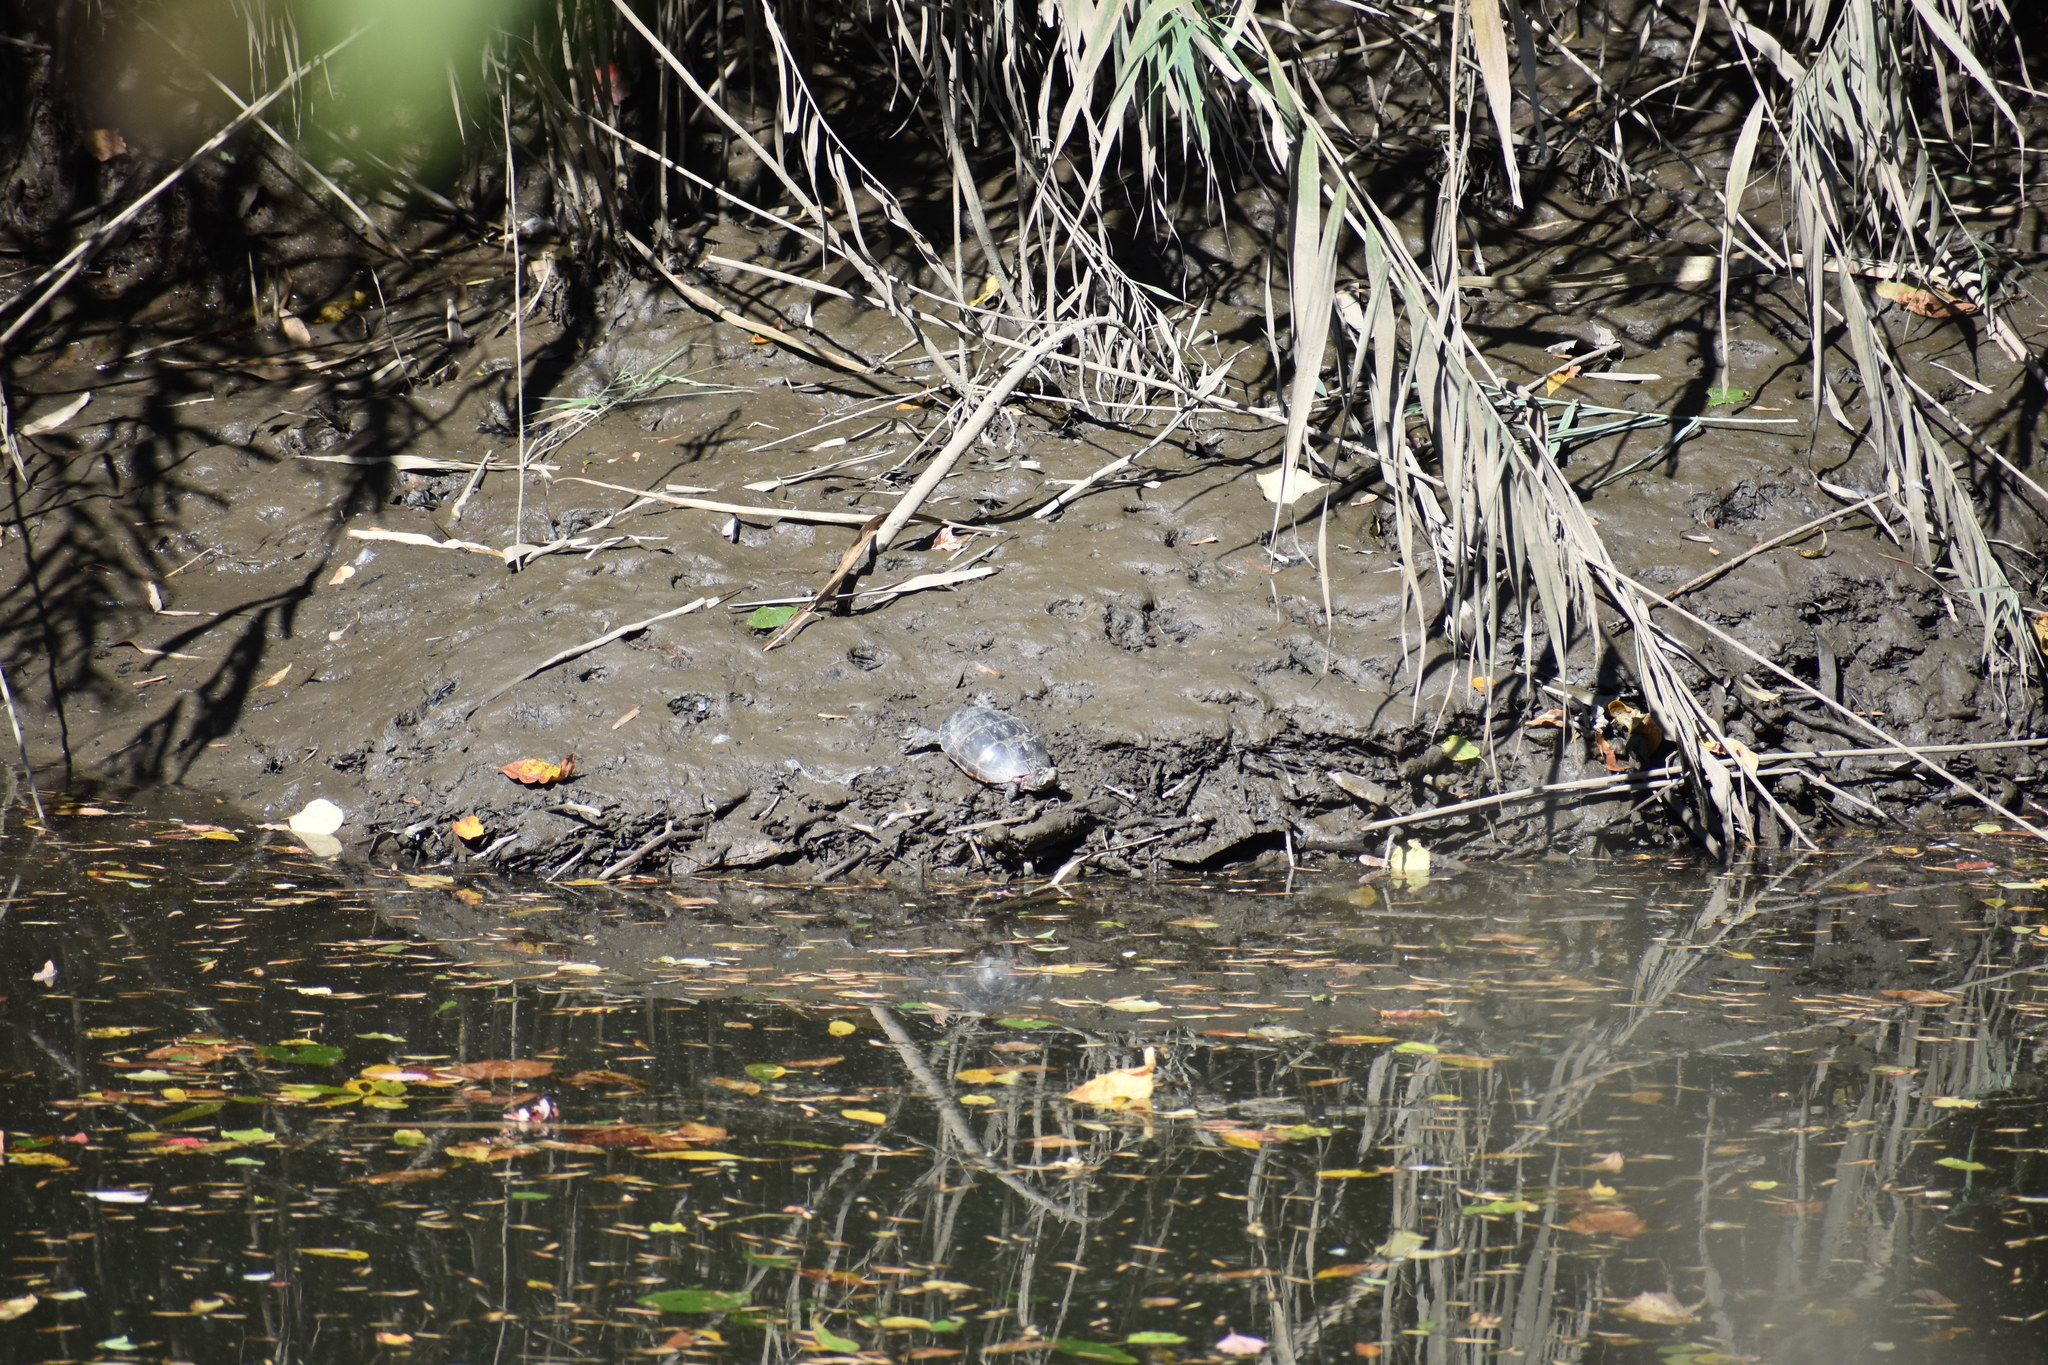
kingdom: Animalia
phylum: Chordata
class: Testudines
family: Emydidae
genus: Chrysemys
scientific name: Chrysemys picta
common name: Painted turtle
